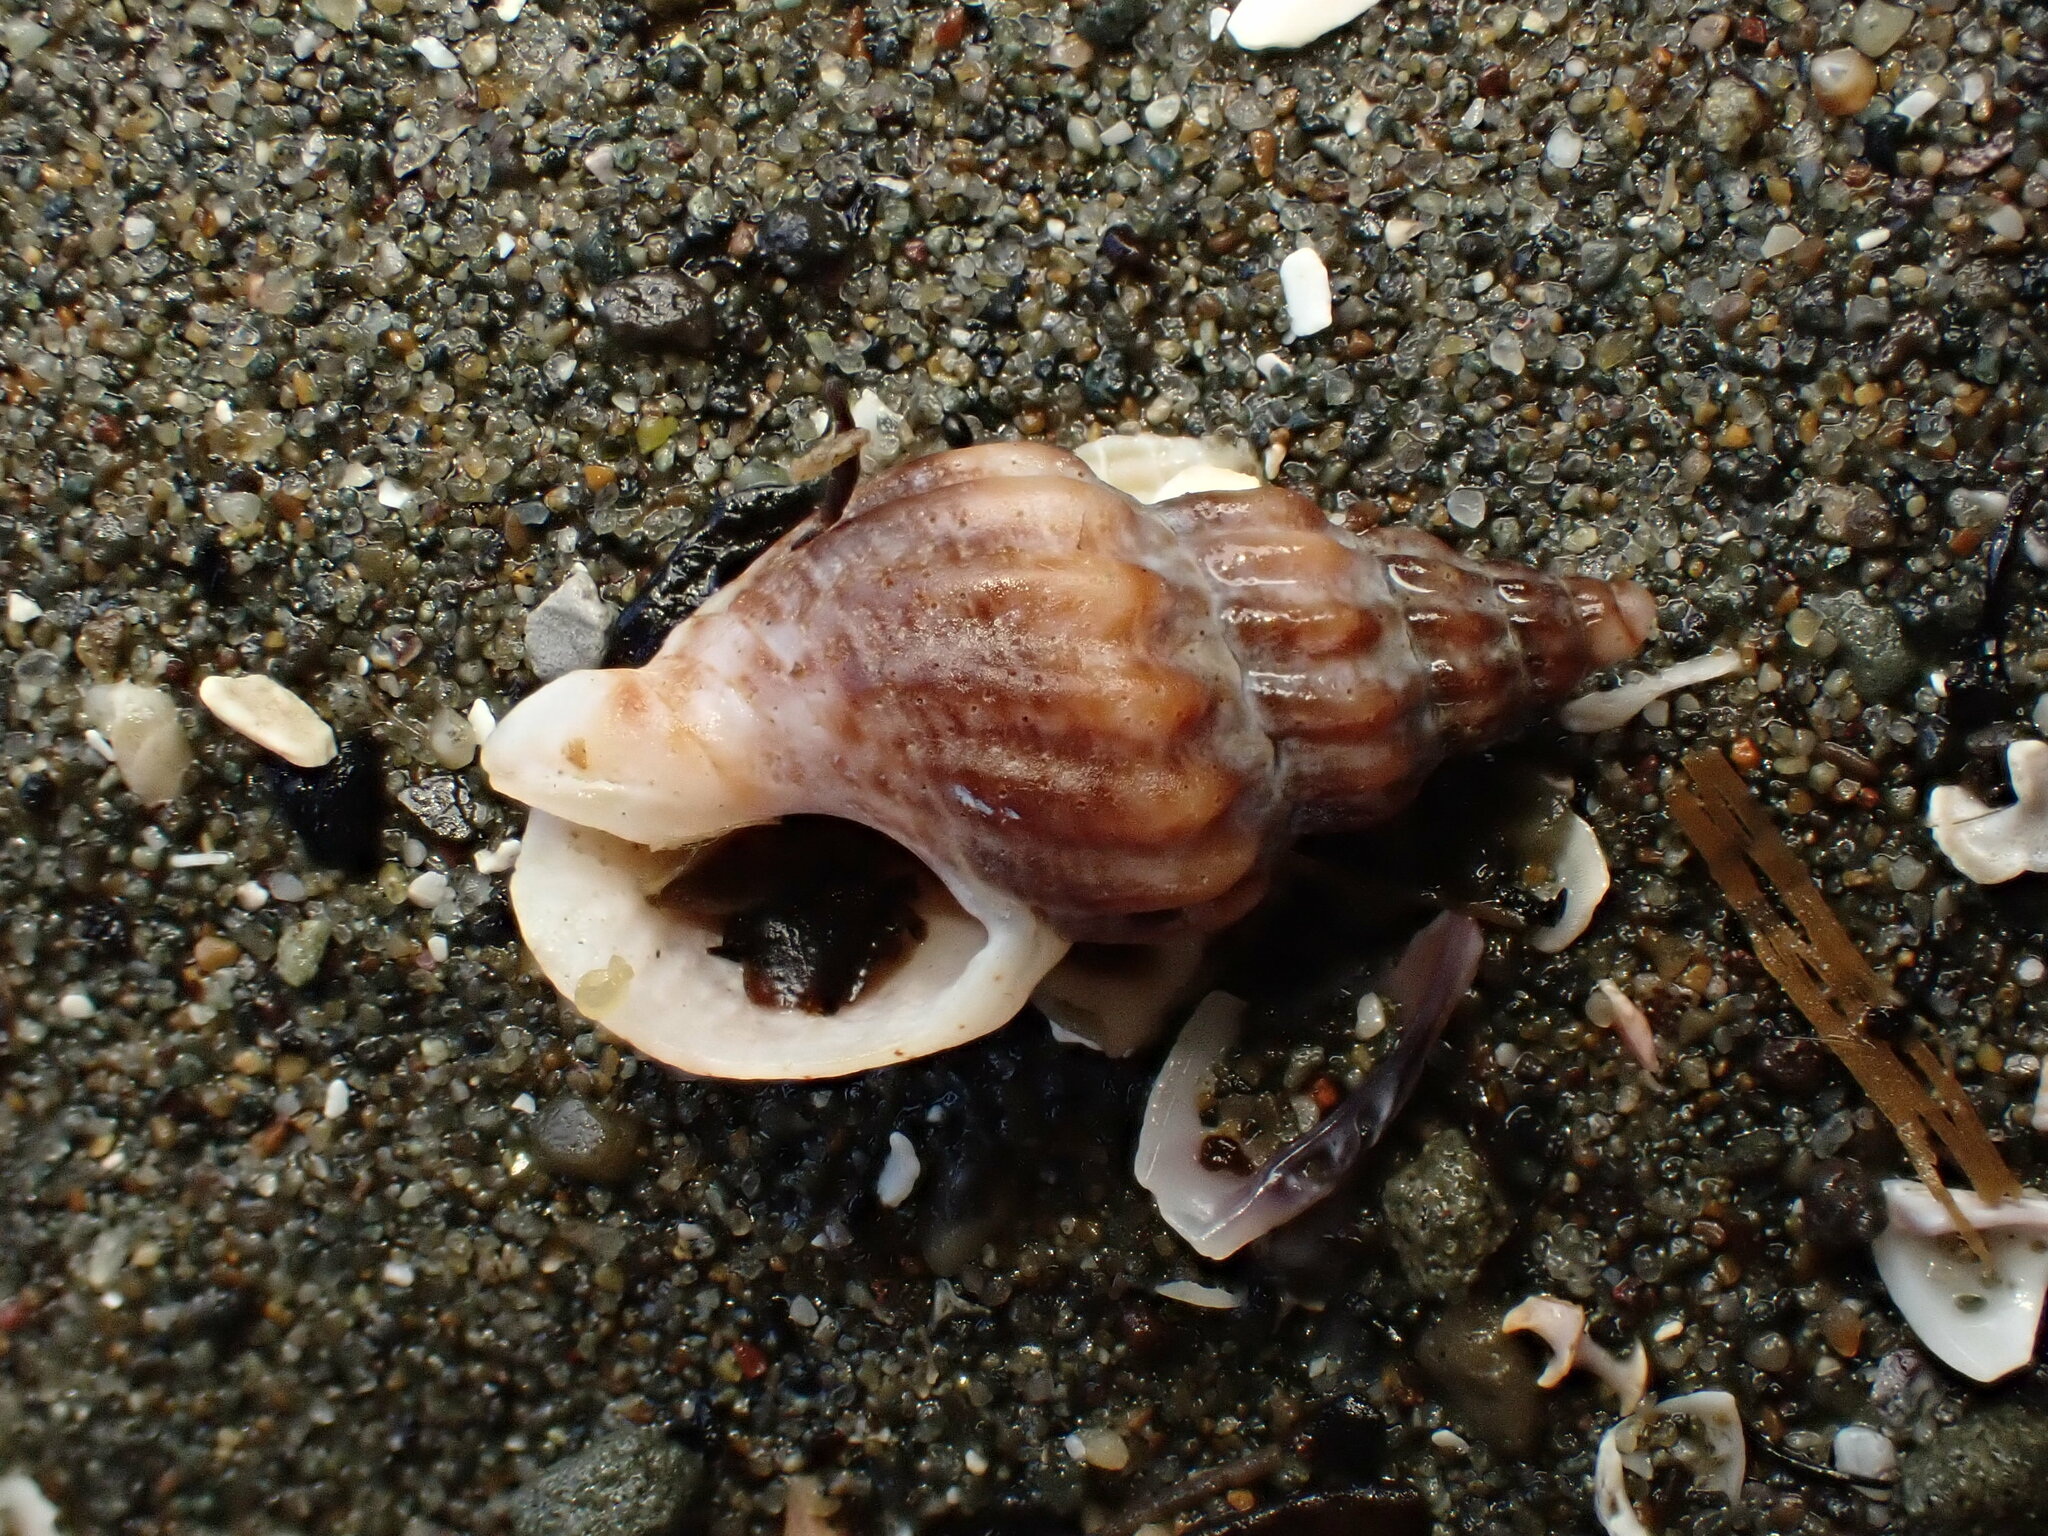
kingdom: Animalia
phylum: Mollusca
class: Gastropoda
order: Neogastropoda
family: Cominellidae
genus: Cominella
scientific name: Cominella quoyana
